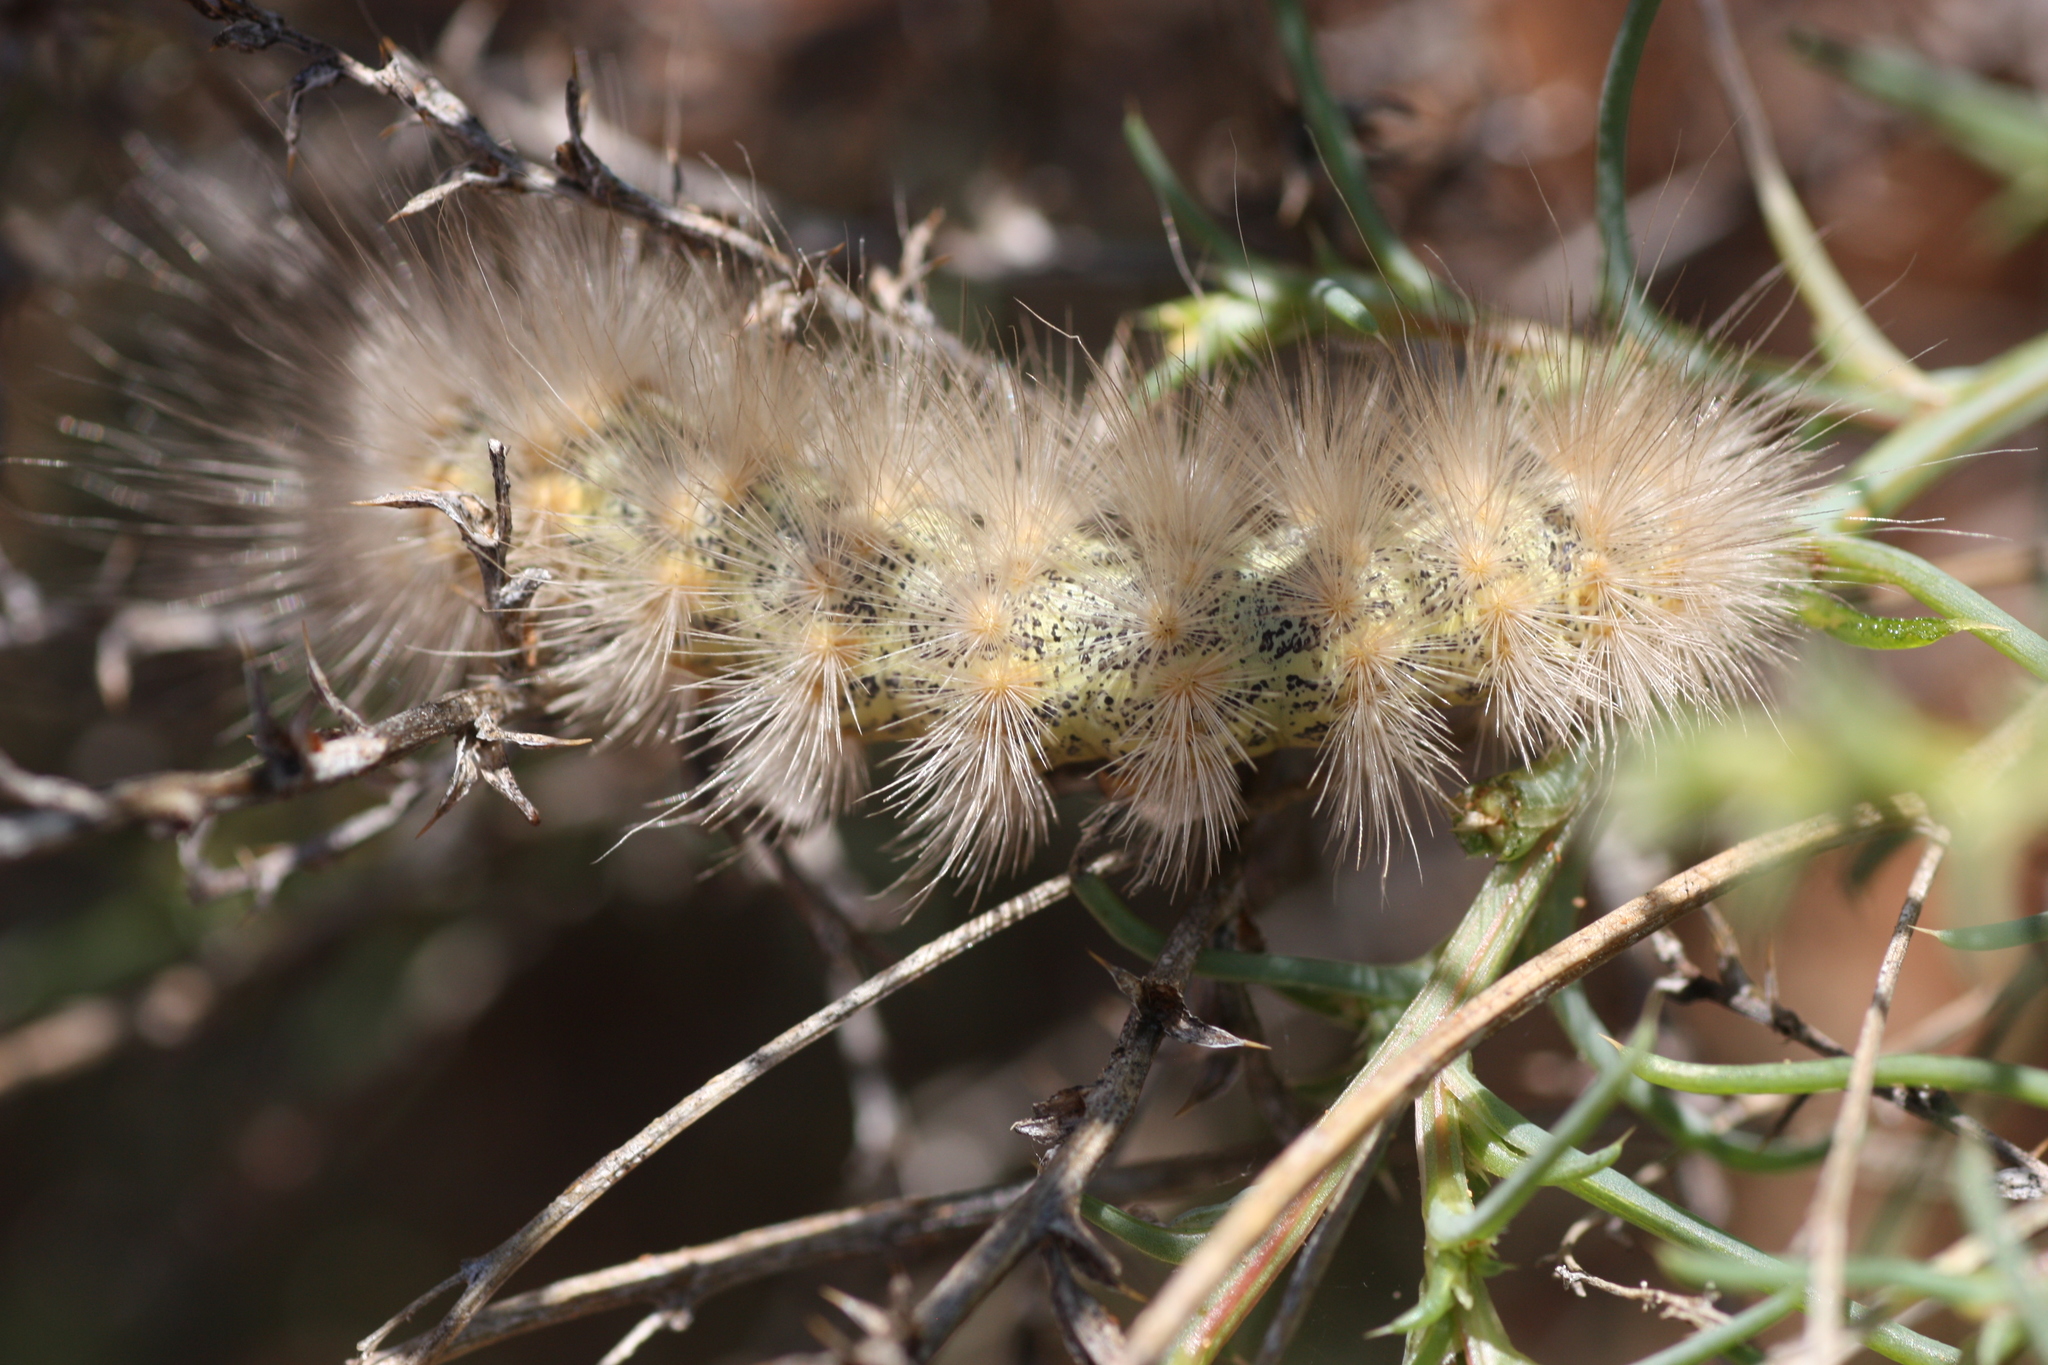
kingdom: Animalia
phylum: Arthropoda
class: Insecta
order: Lepidoptera
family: Erebidae
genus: Estigmene
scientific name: Estigmene
